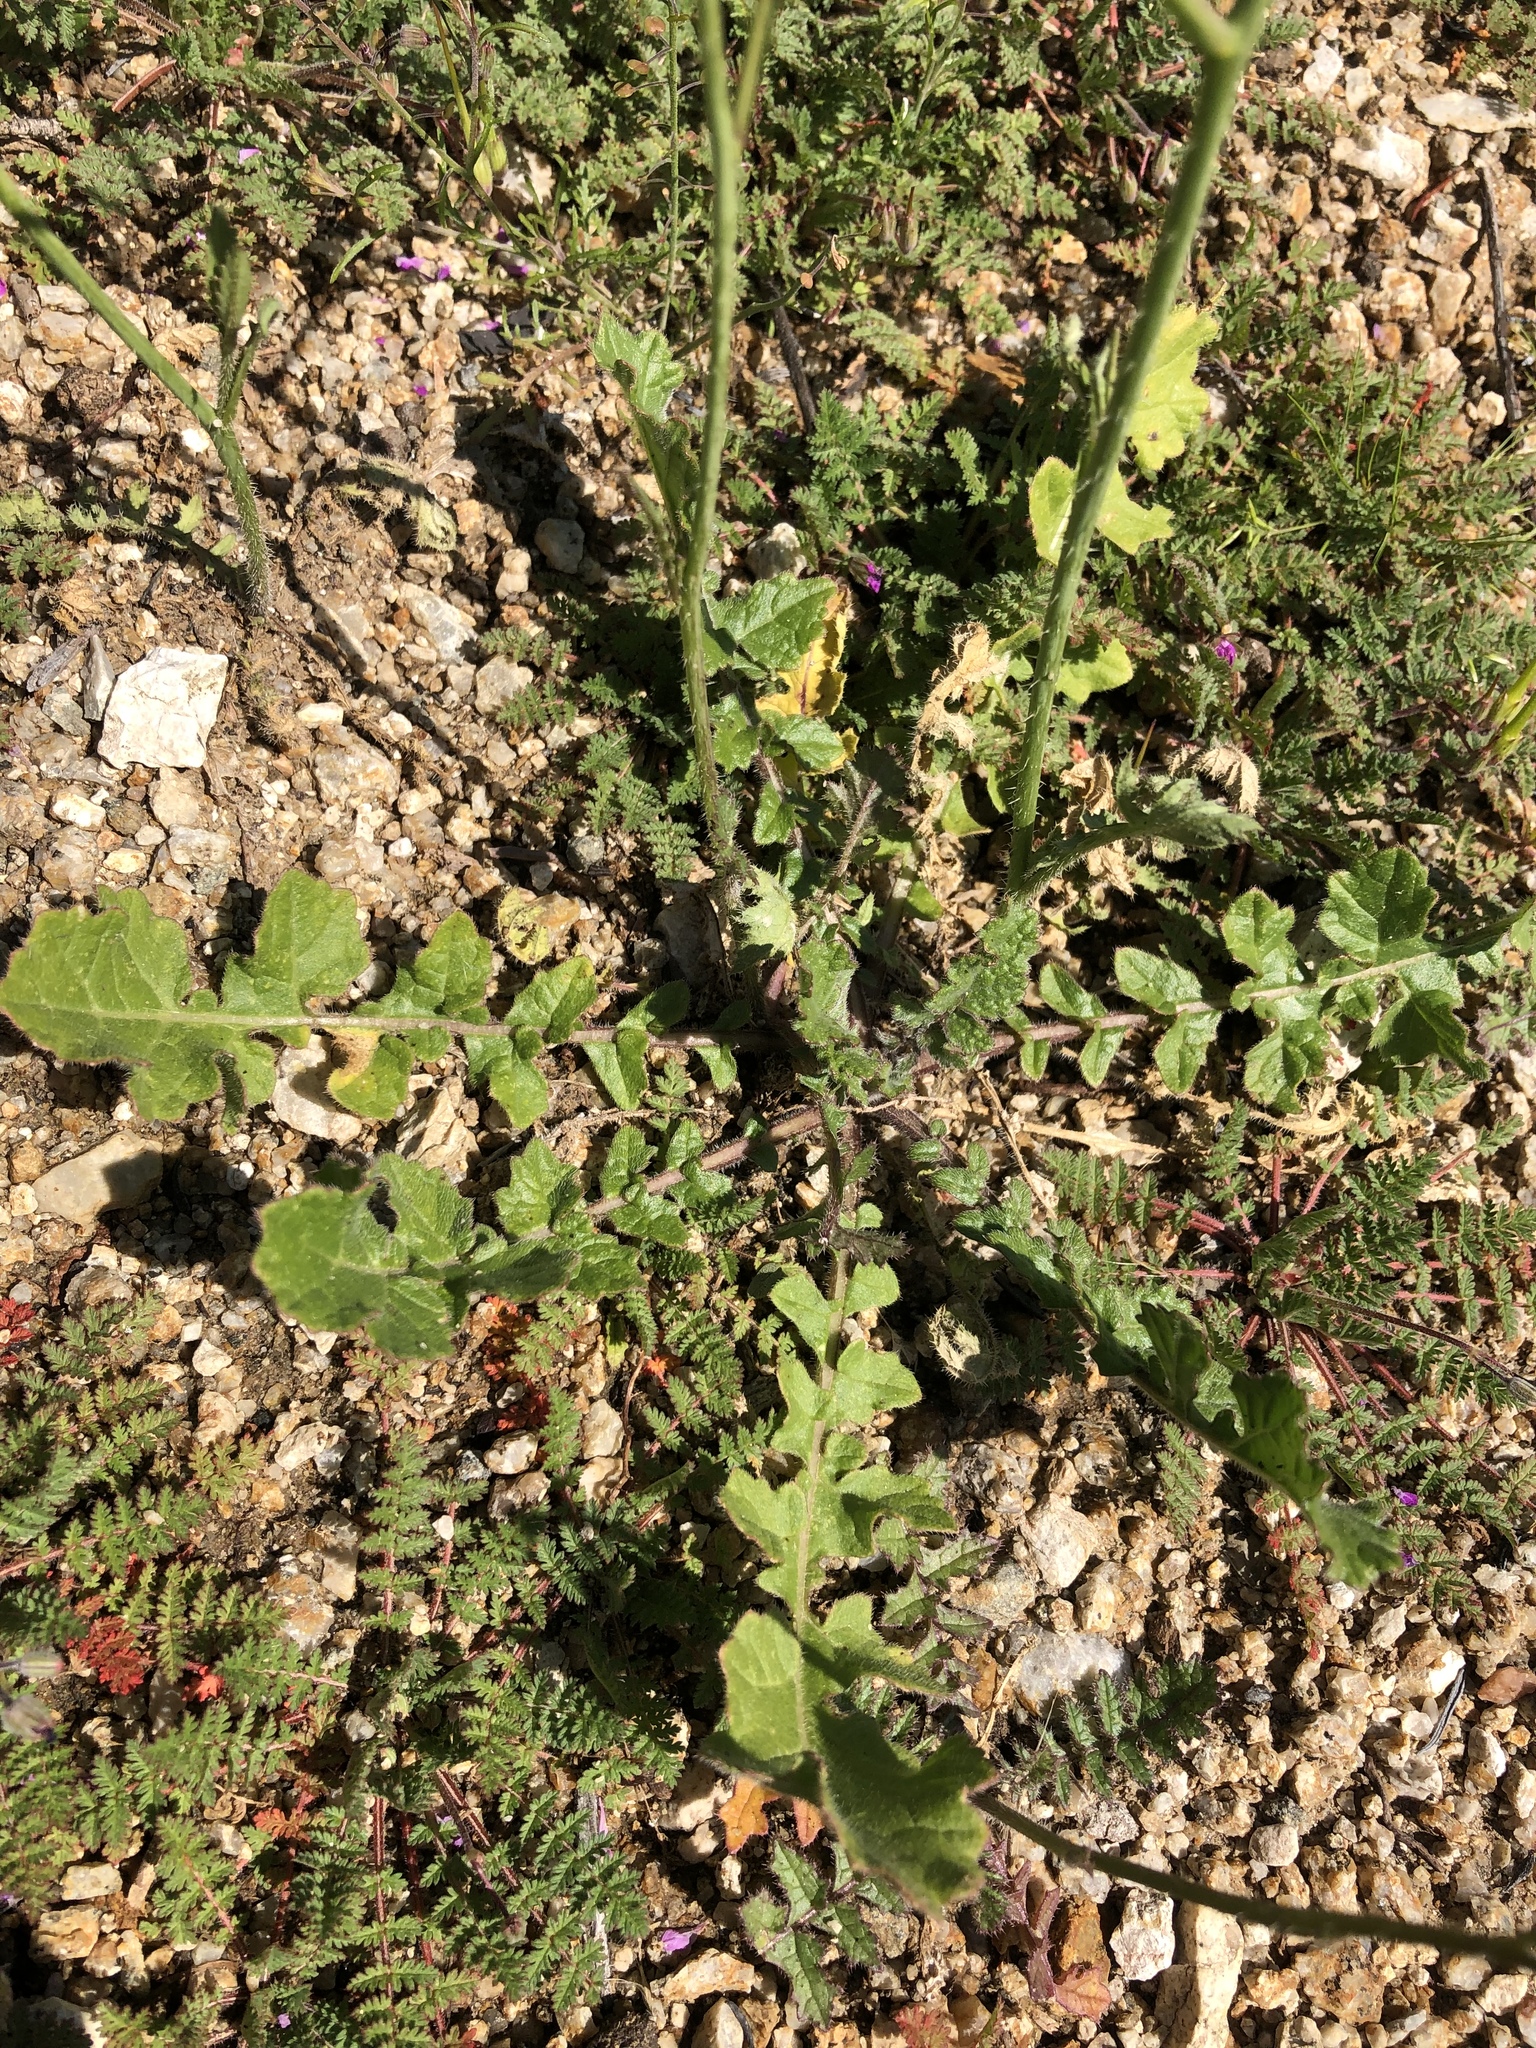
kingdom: Plantae
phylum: Tracheophyta
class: Magnoliopsida
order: Brassicales
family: Brassicaceae
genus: Brassica
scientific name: Brassica tournefortii
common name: Pale cabbage
